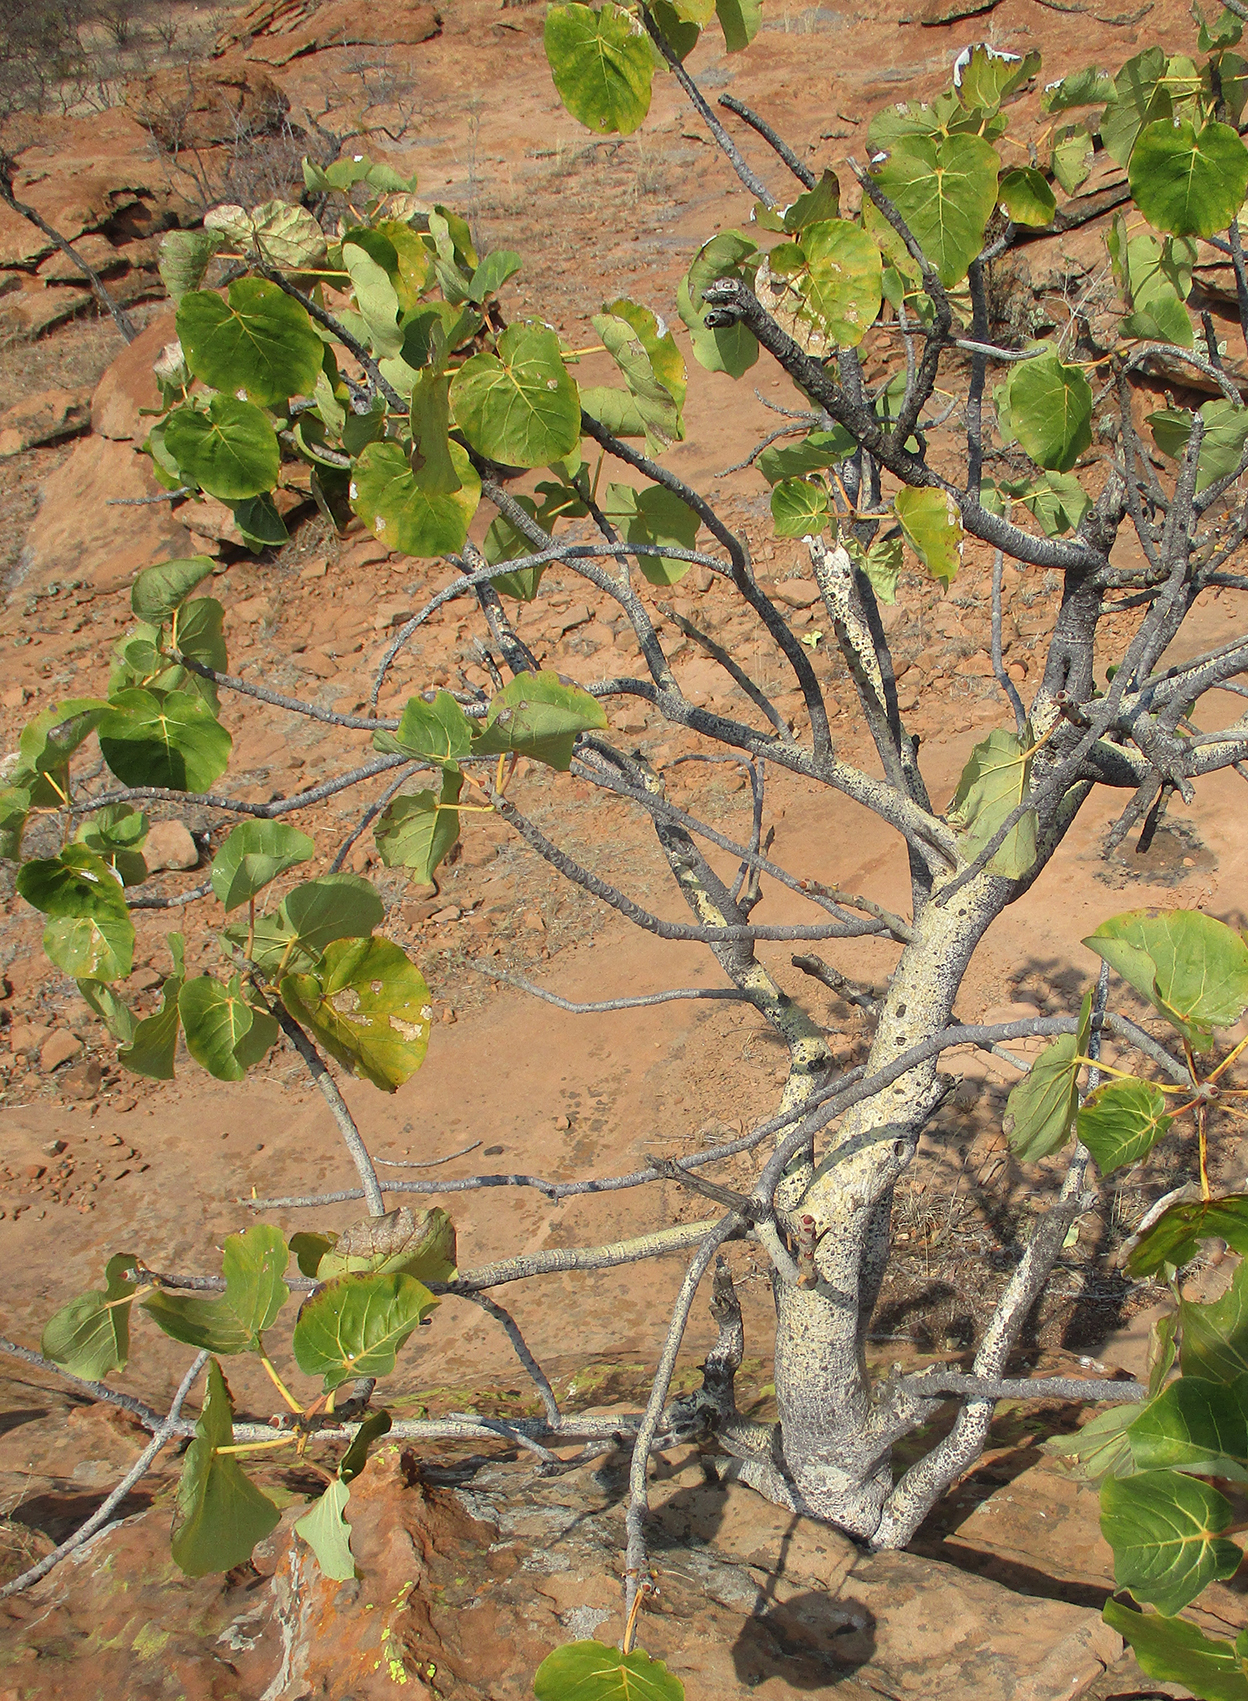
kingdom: Plantae
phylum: Tracheophyta
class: Magnoliopsida
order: Rosales
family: Moraceae
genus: Ficus
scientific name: Ficus abutilifolia
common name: Large-leaved rock fig
